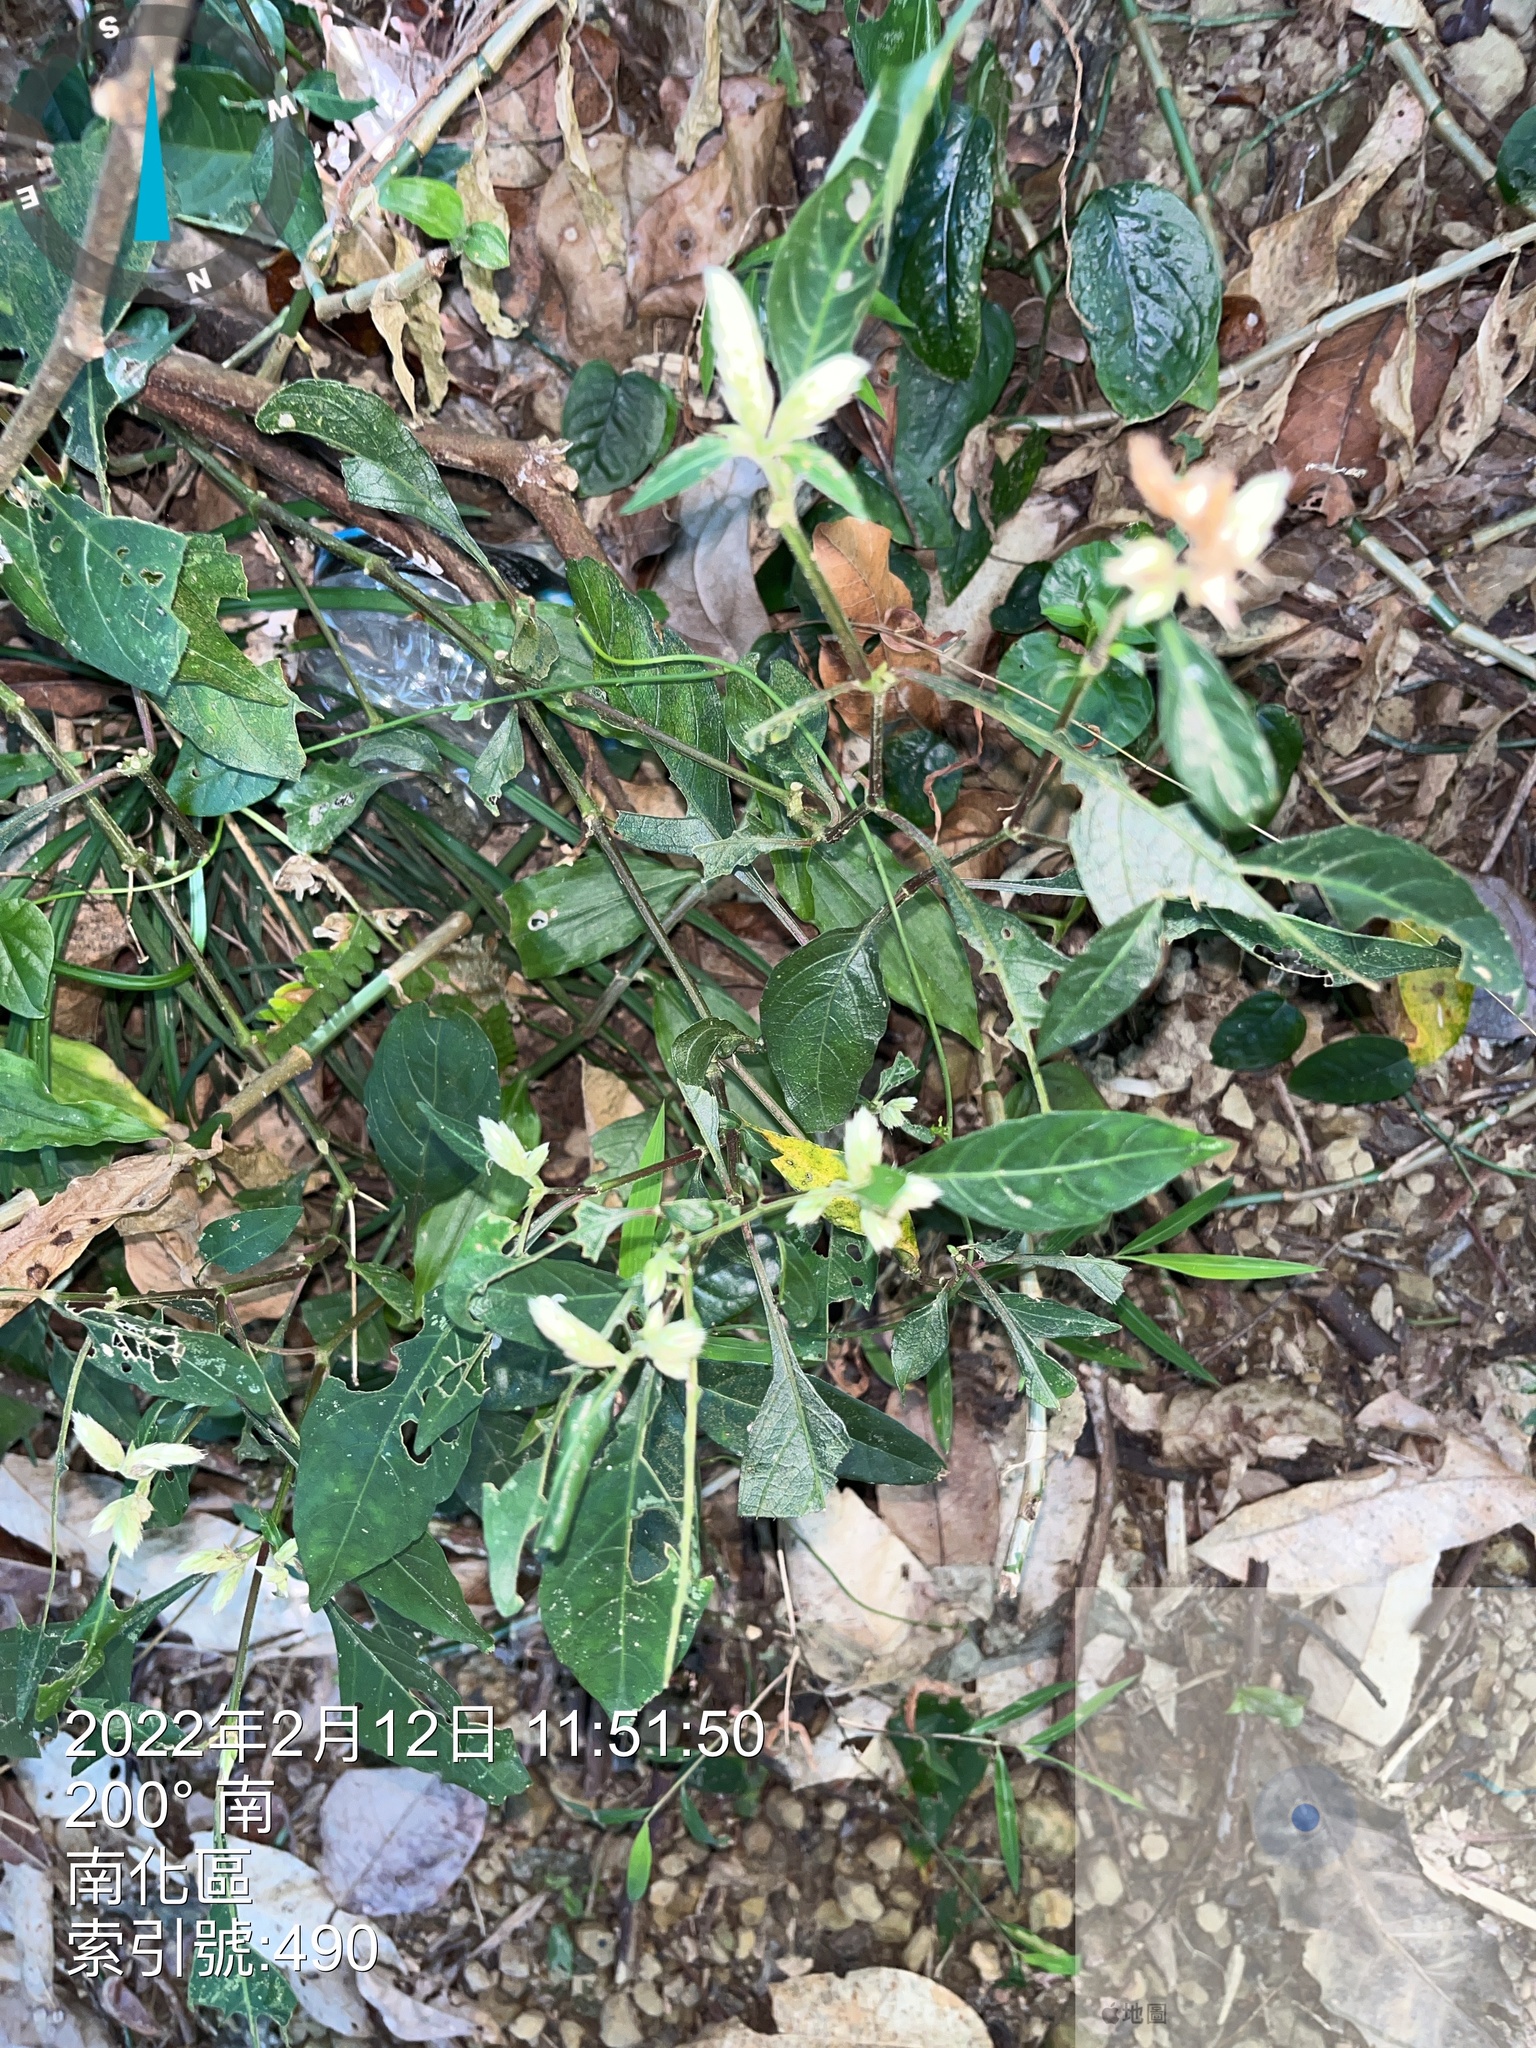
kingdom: Plantae
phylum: Tracheophyta
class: Magnoliopsida
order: Lamiales
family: Acanthaceae
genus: Lepidagathis
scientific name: Lepidagathis formosensis
